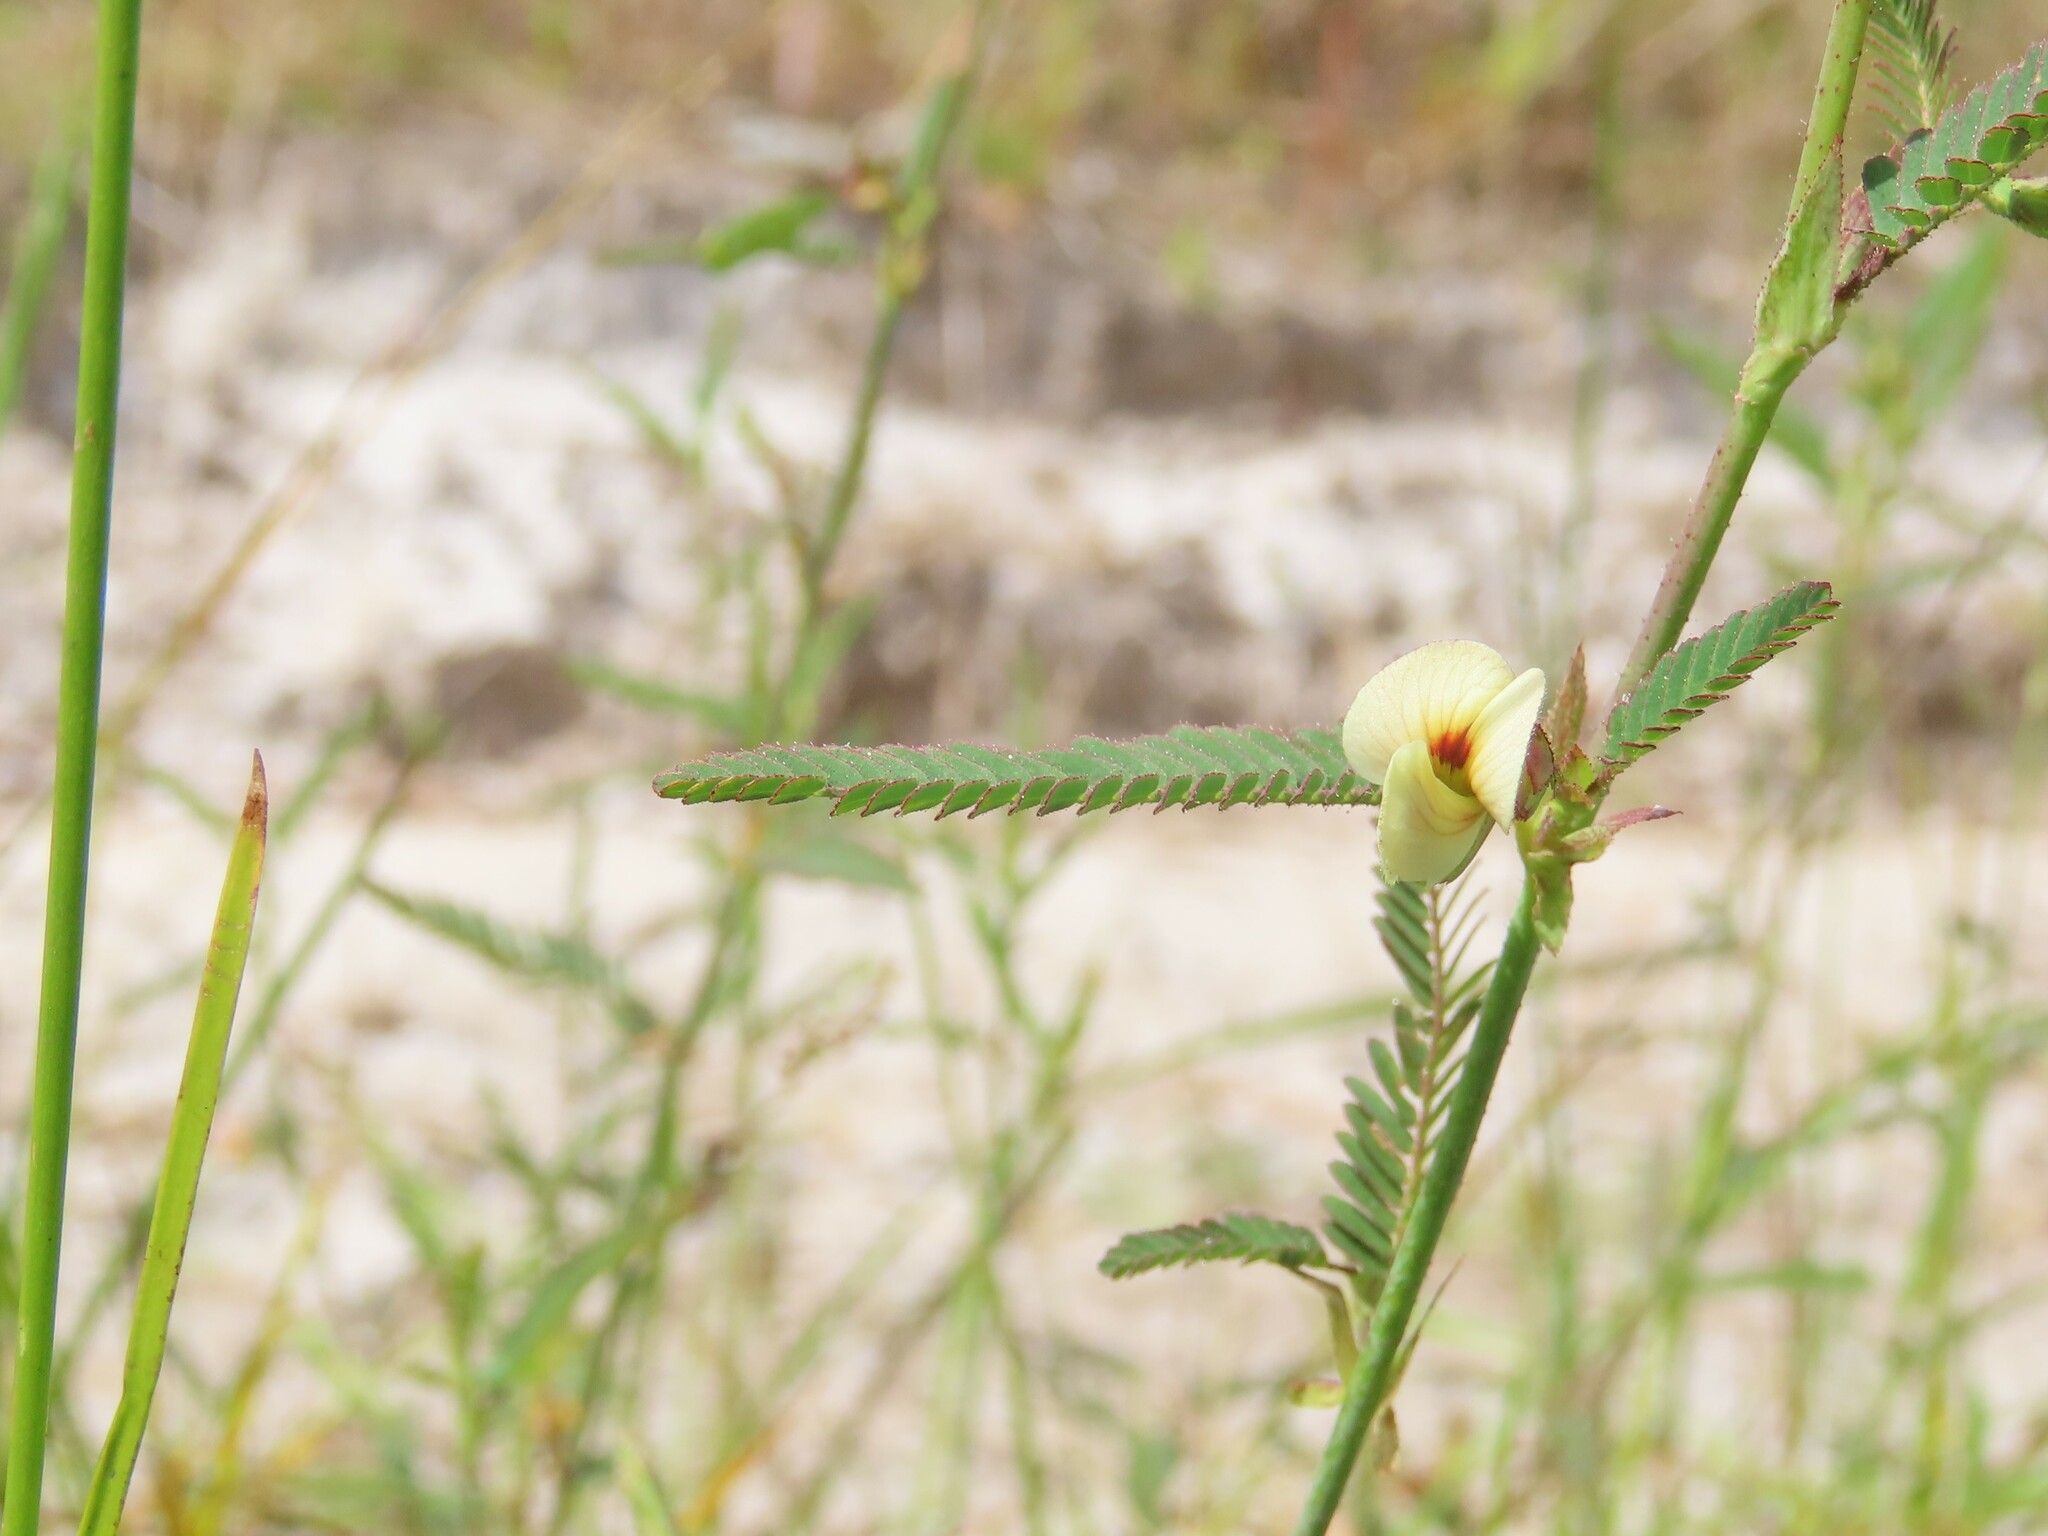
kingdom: Plantae
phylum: Tracheophyta
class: Magnoliopsida
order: Fabales
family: Fabaceae
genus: Aeschynomene
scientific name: Aeschynomene indica
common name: Indian jointvetch
